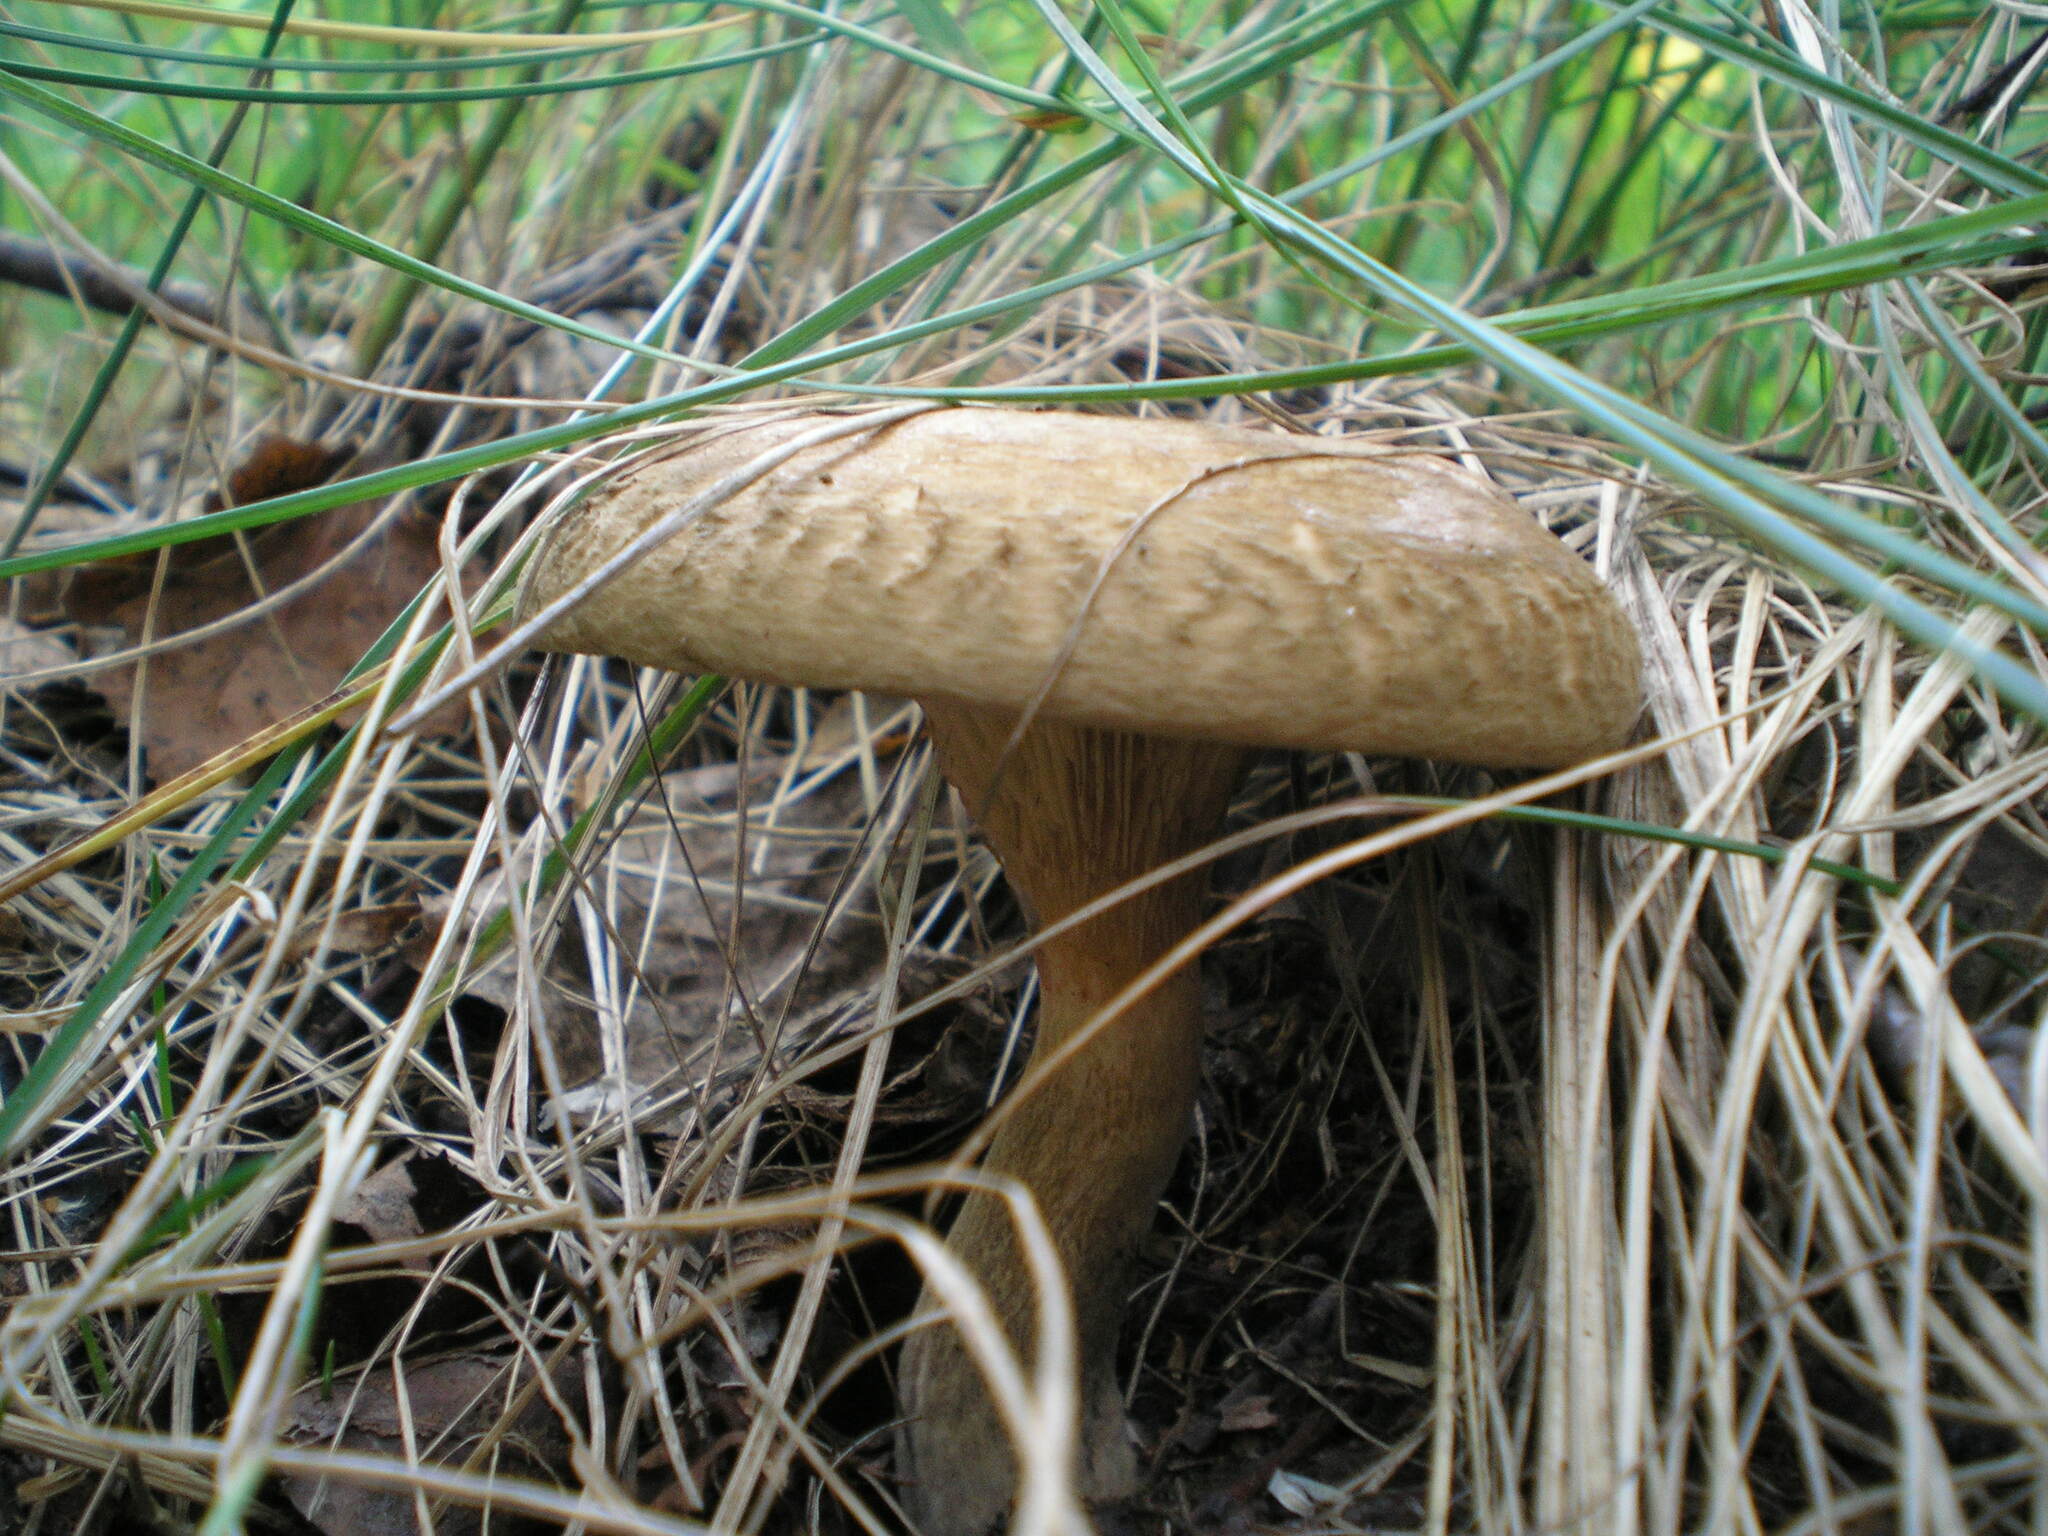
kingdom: Fungi
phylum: Basidiomycota
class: Agaricomycetes
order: Boletales
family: Paxillaceae
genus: Paxillus
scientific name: Paxillus involutus
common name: Brown roll rim
